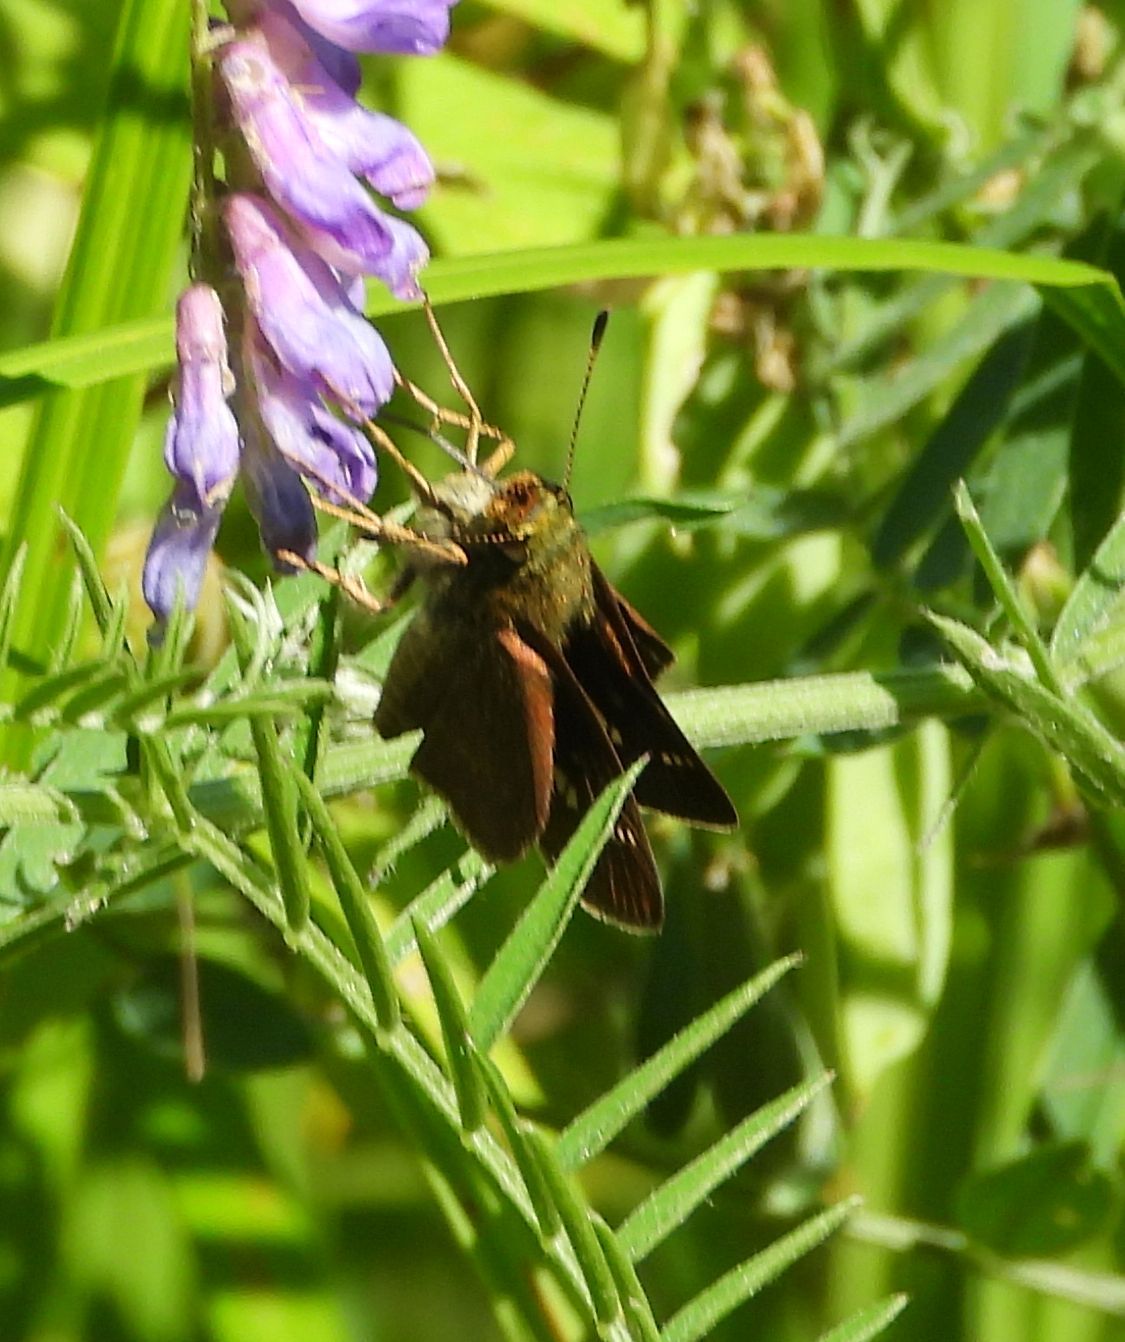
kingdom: Animalia
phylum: Arthropoda
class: Insecta
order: Lepidoptera
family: Hesperiidae
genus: Vernia
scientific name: Vernia verna
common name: Little glassywing
